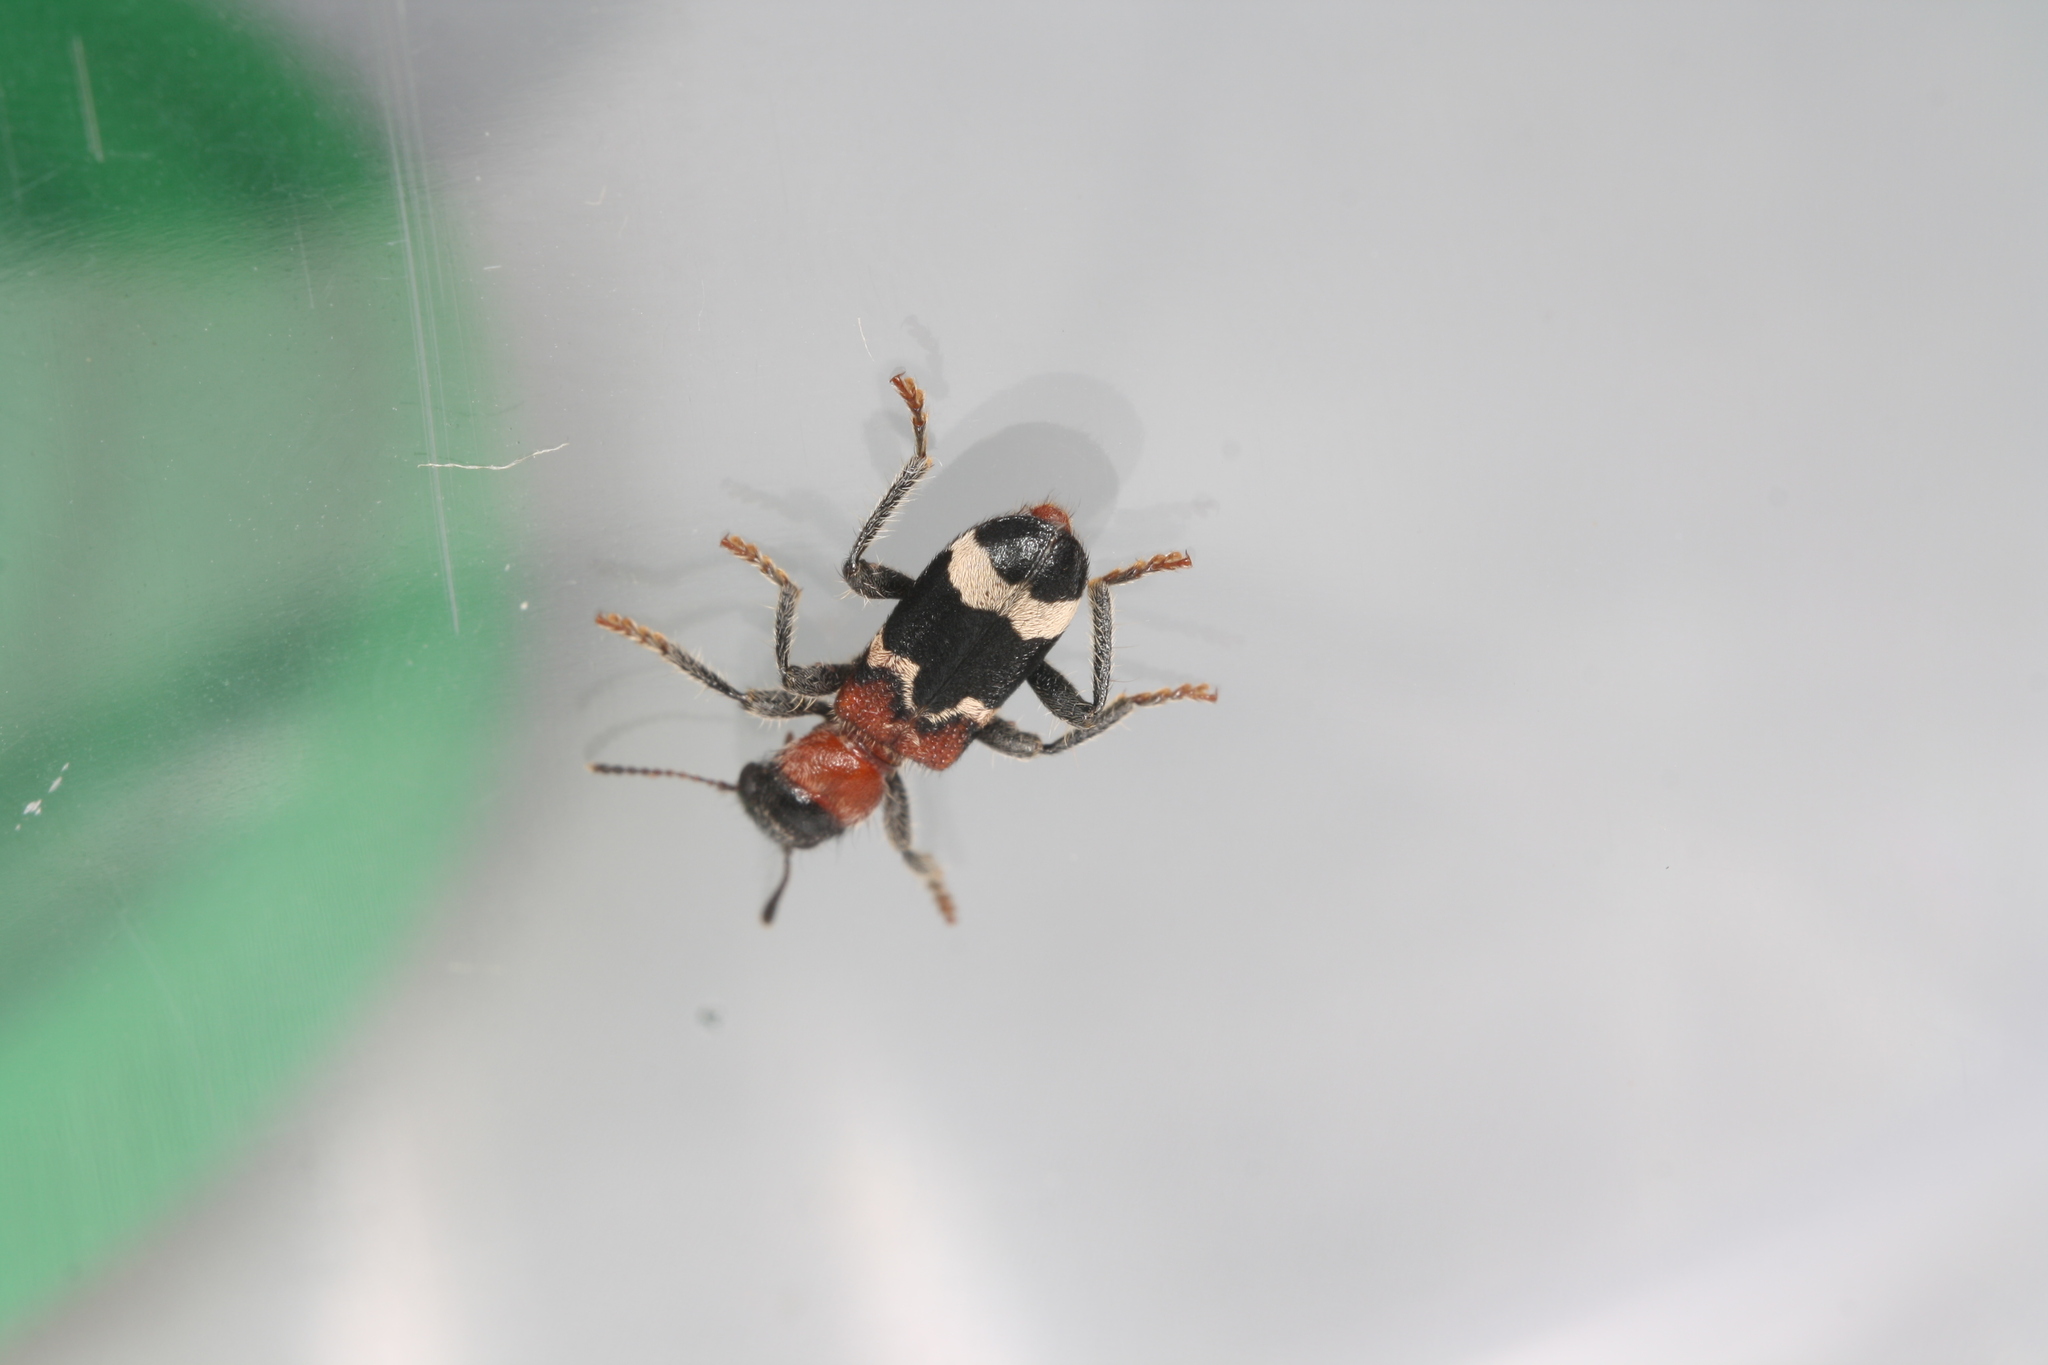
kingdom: Animalia
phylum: Arthropoda
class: Insecta
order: Coleoptera
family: Cleridae
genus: Thanasimus
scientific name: Thanasimus formicarius
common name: Ant beetle
